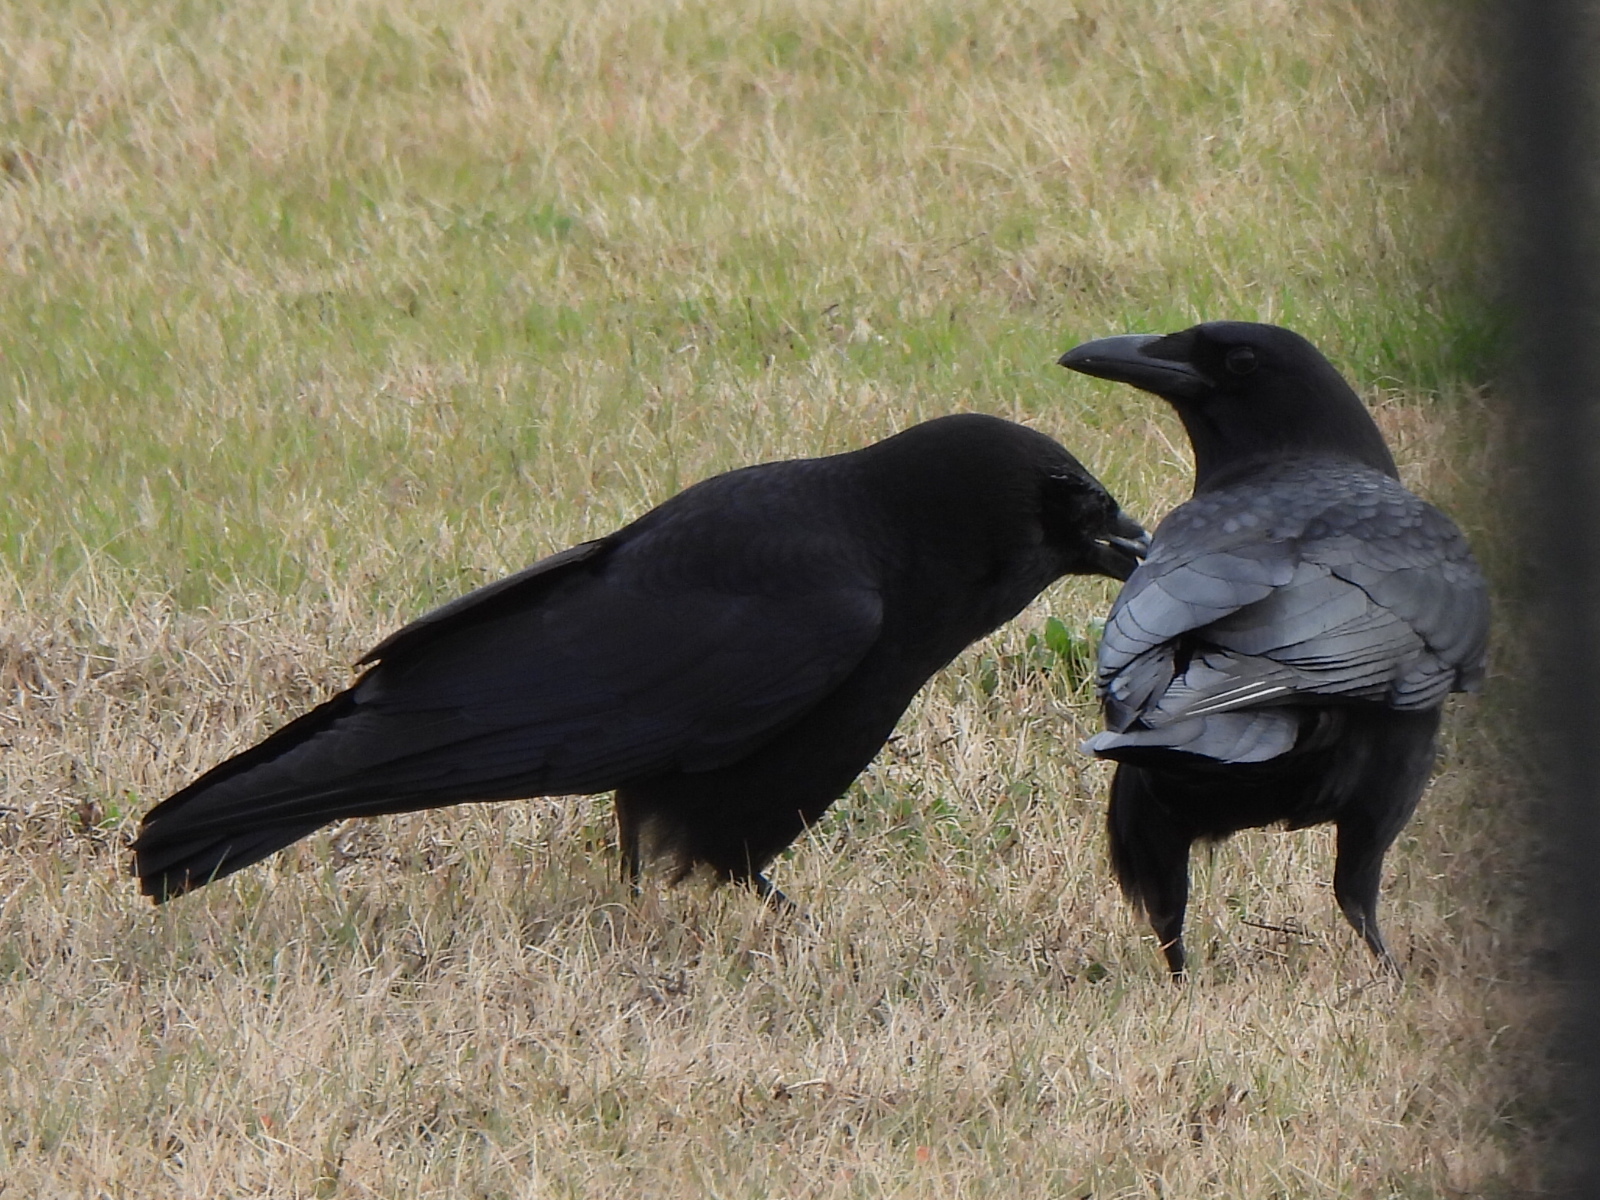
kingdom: Animalia
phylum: Chordata
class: Aves
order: Passeriformes
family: Corvidae
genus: Corvus
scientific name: Corvus brachyrhynchos
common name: American crow
